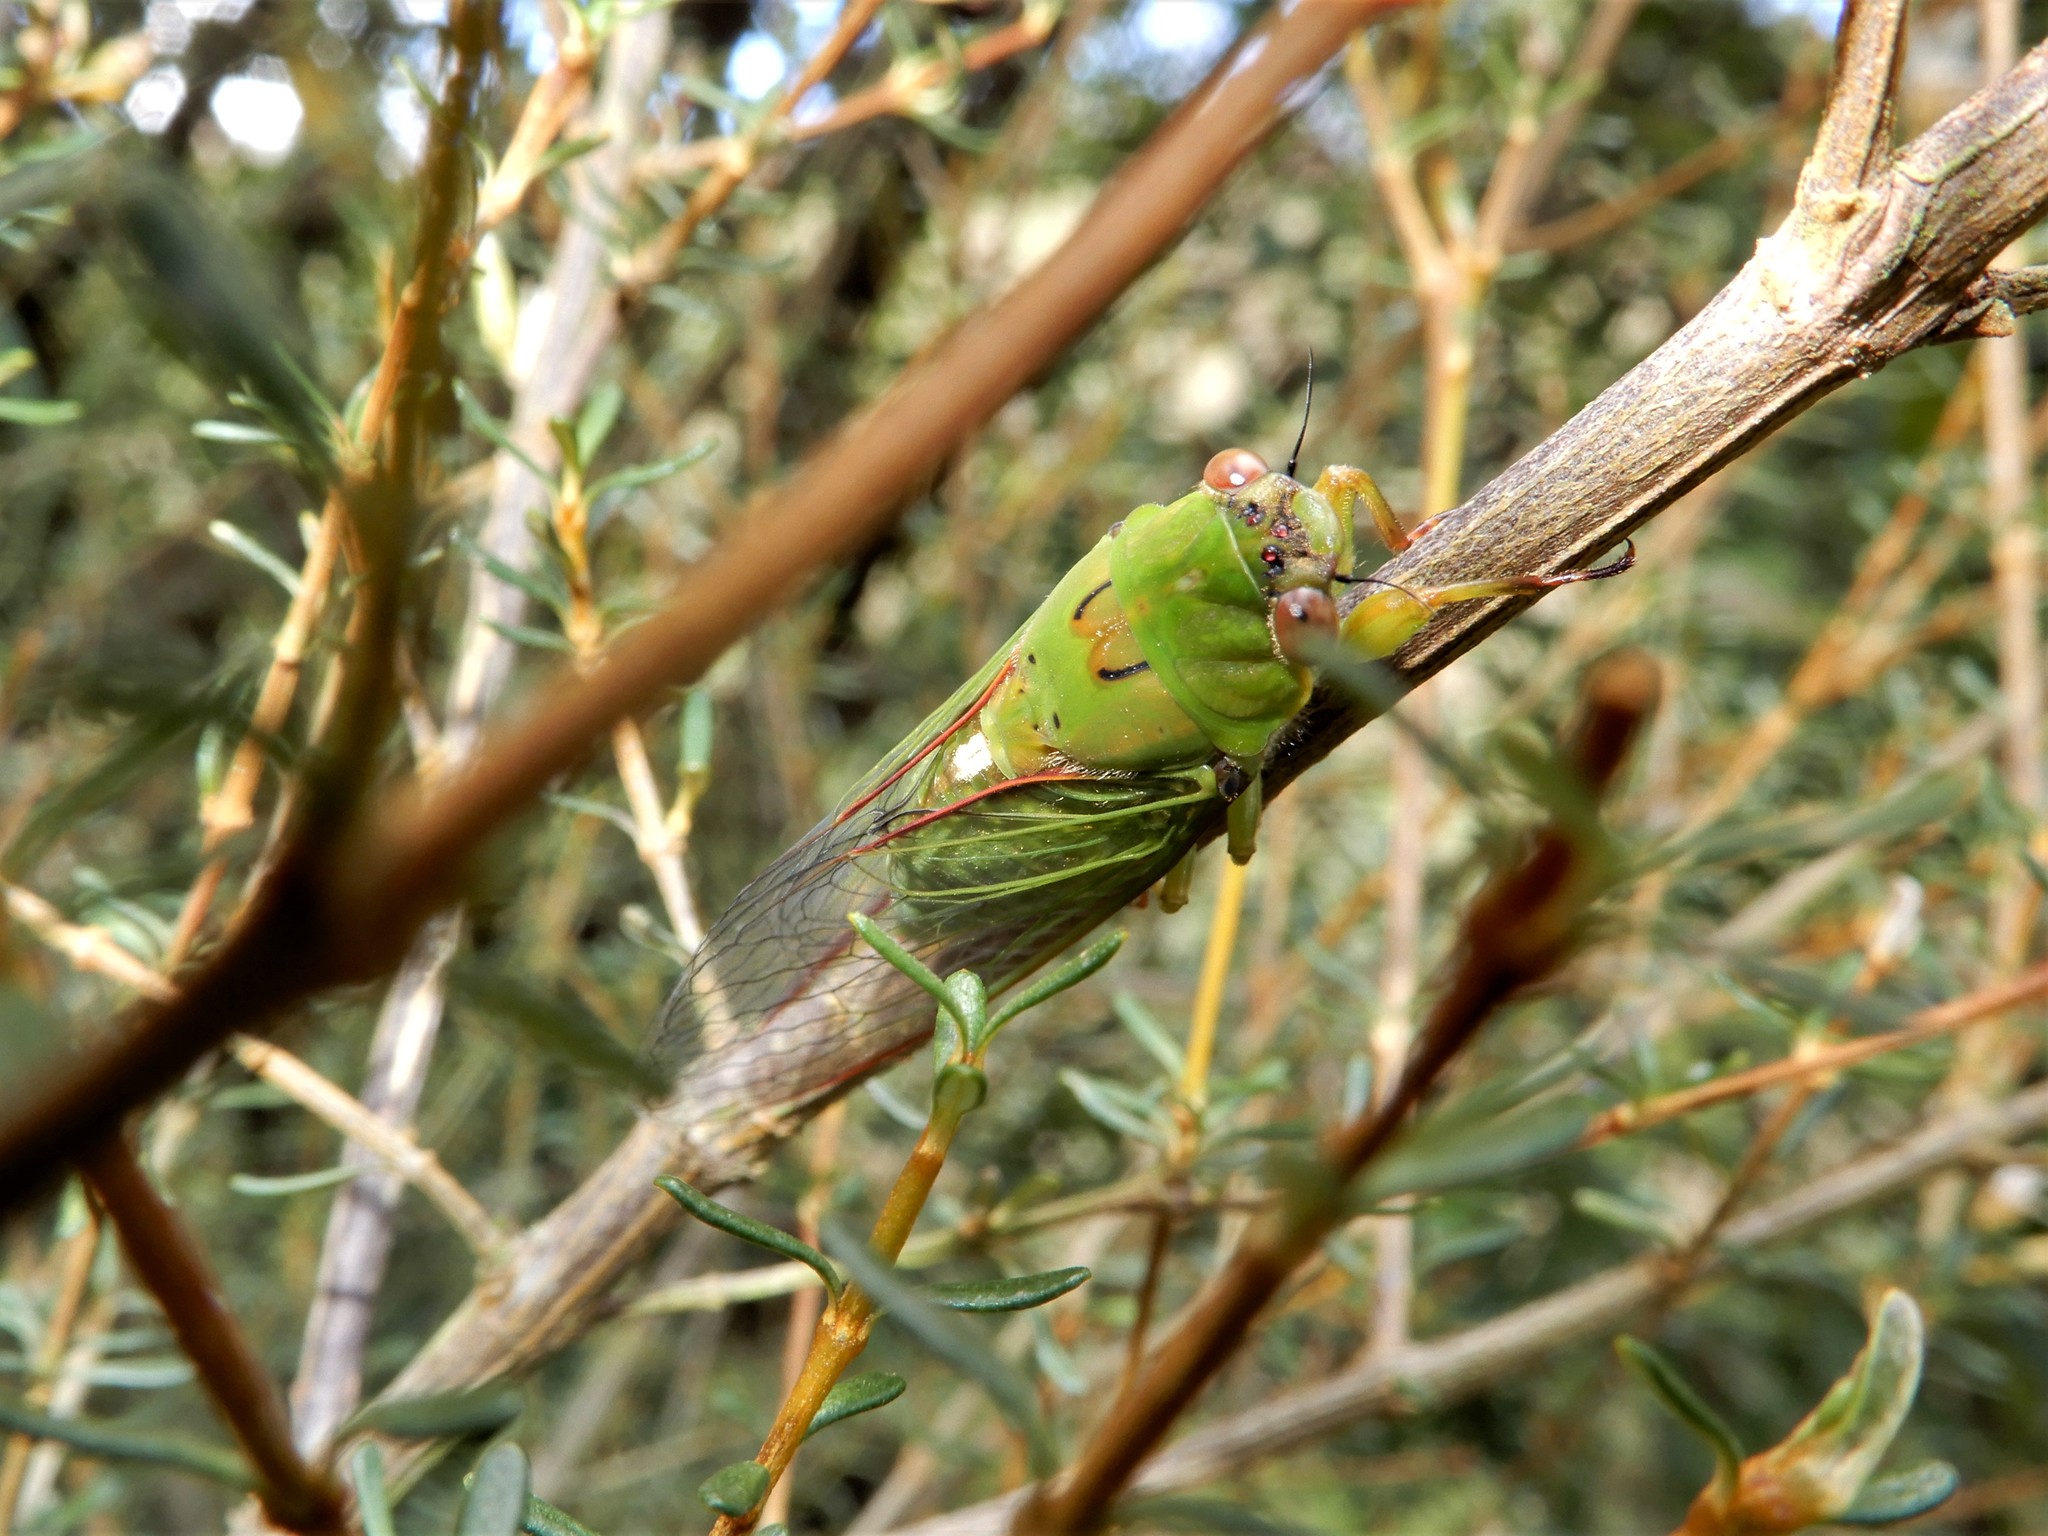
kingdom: Animalia
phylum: Arthropoda
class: Insecta
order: Hemiptera
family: Cicadidae
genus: Kikihia
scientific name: Kikihia ochrina
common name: April green cicada
